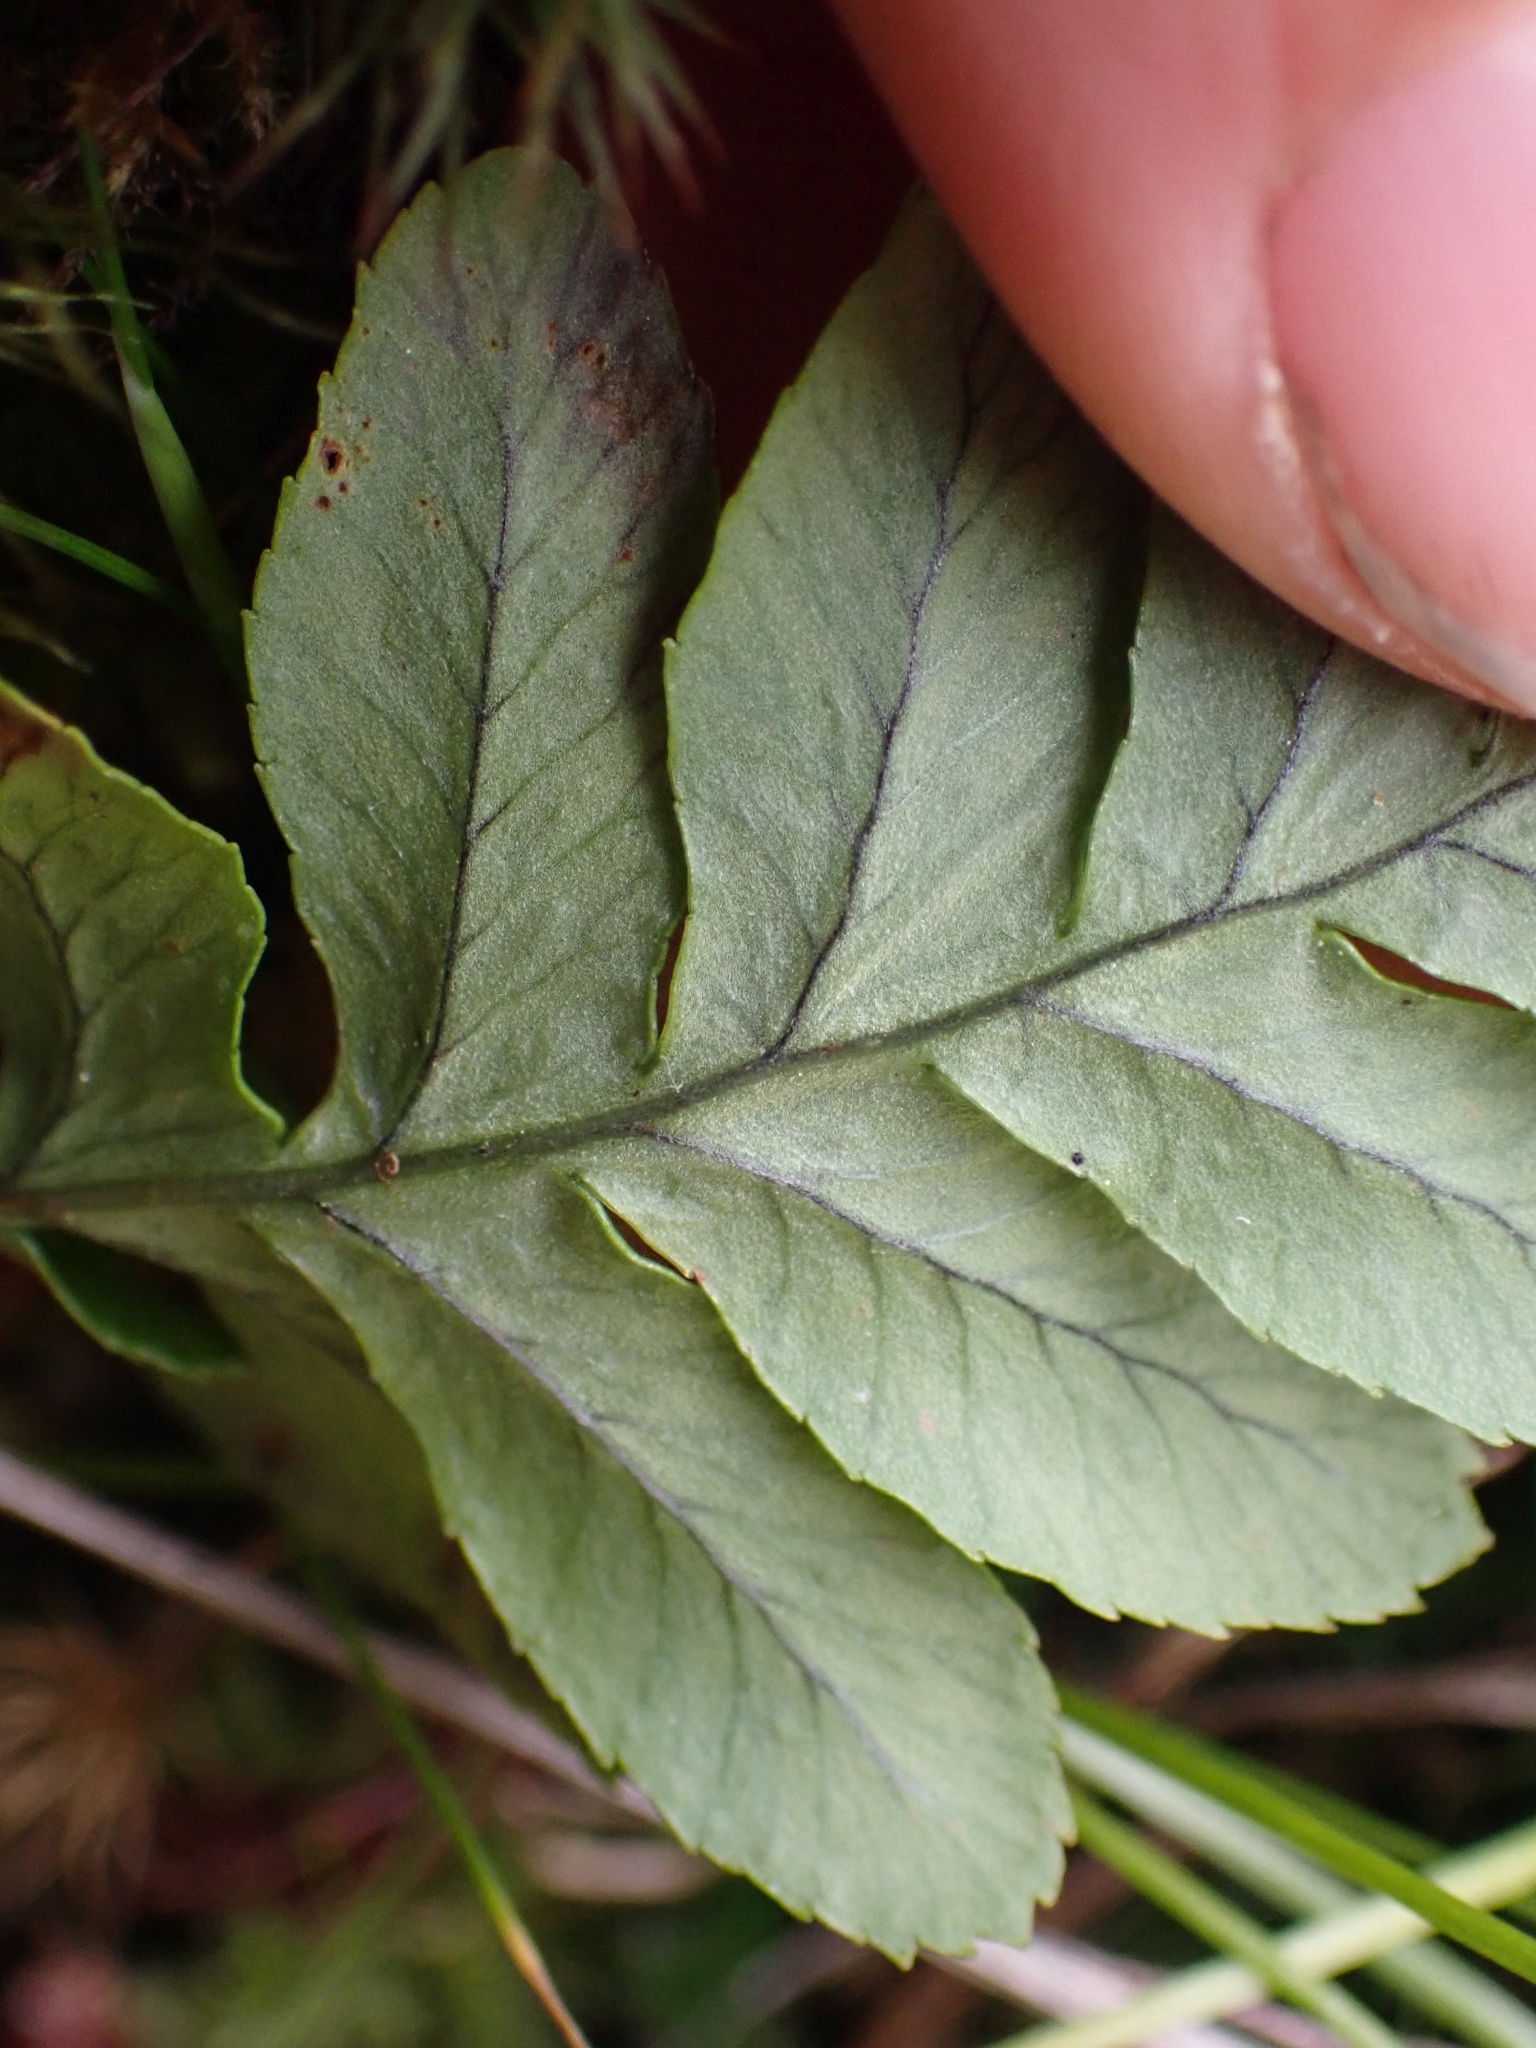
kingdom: Plantae
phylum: Tracheophyta
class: Polypodiopsida
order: Polypodiales
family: Polypodiaceae
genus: Polypodium
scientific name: Polypodium glycyrrhiza
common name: Licorice fern
